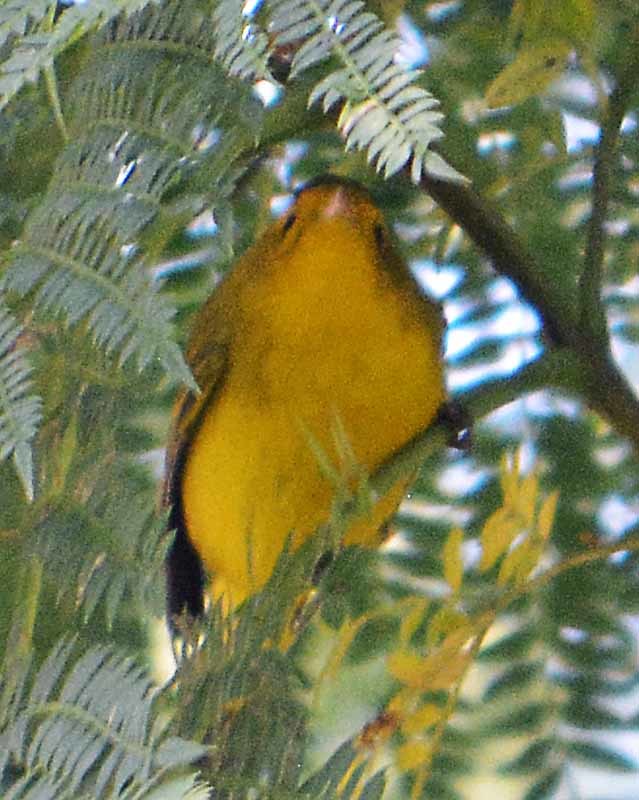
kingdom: Animalia
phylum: Chordata
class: Aves
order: Passeriformes
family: Parulidae
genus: Cardellina
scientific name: Cardellina pusilla
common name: Wilson's warbler
